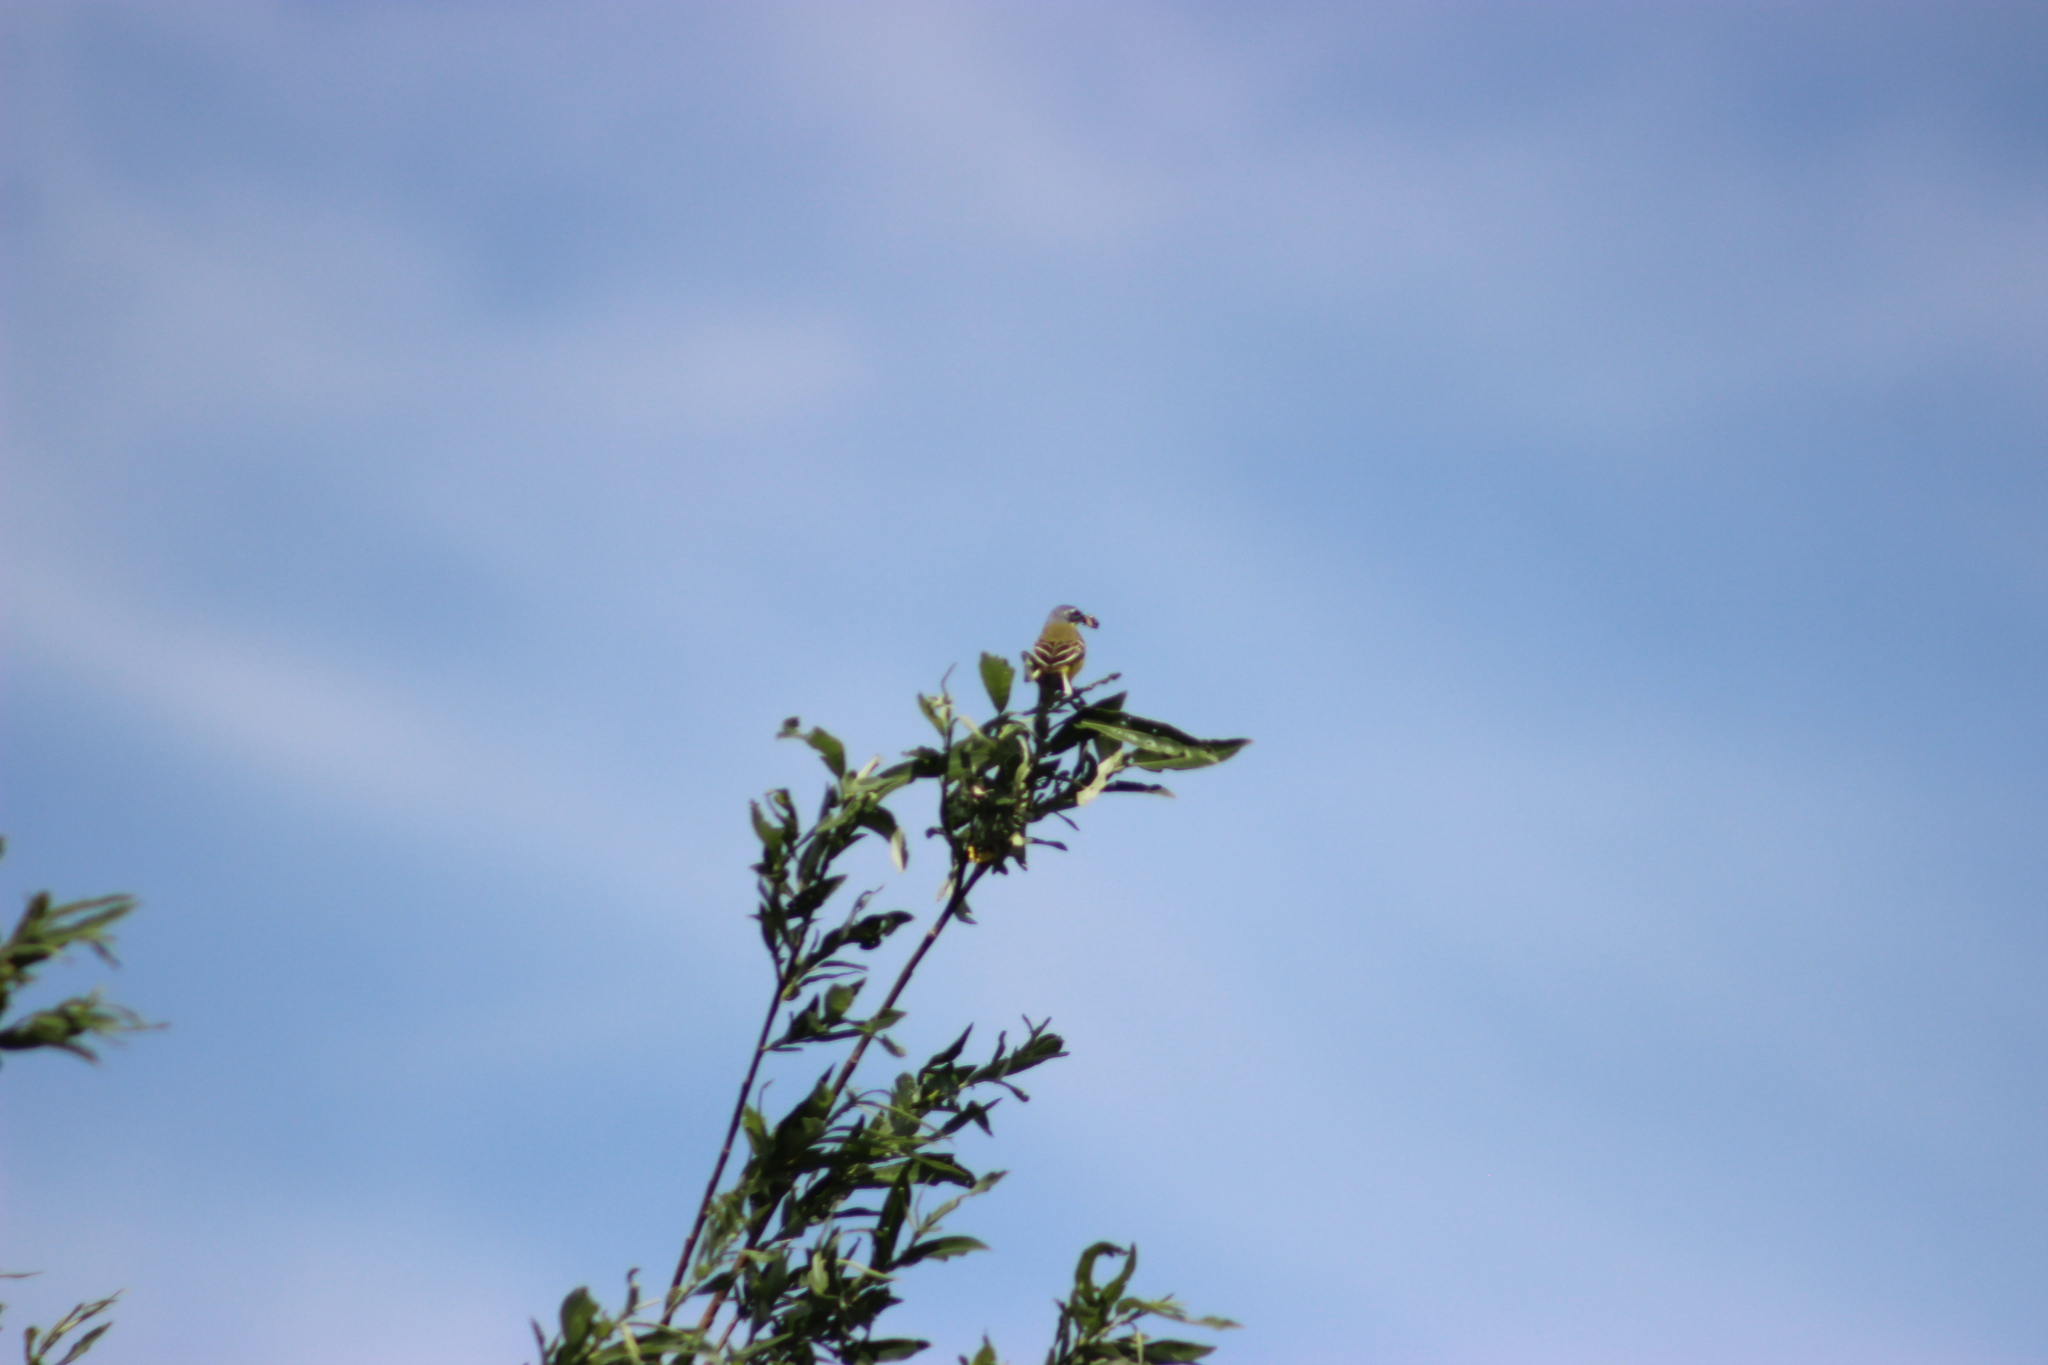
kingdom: Animalia
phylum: Chordata
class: Aves
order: Passeriformes
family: Motacillidae
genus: Motacilla
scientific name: Motacilla flava
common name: Western yellow wagtail
